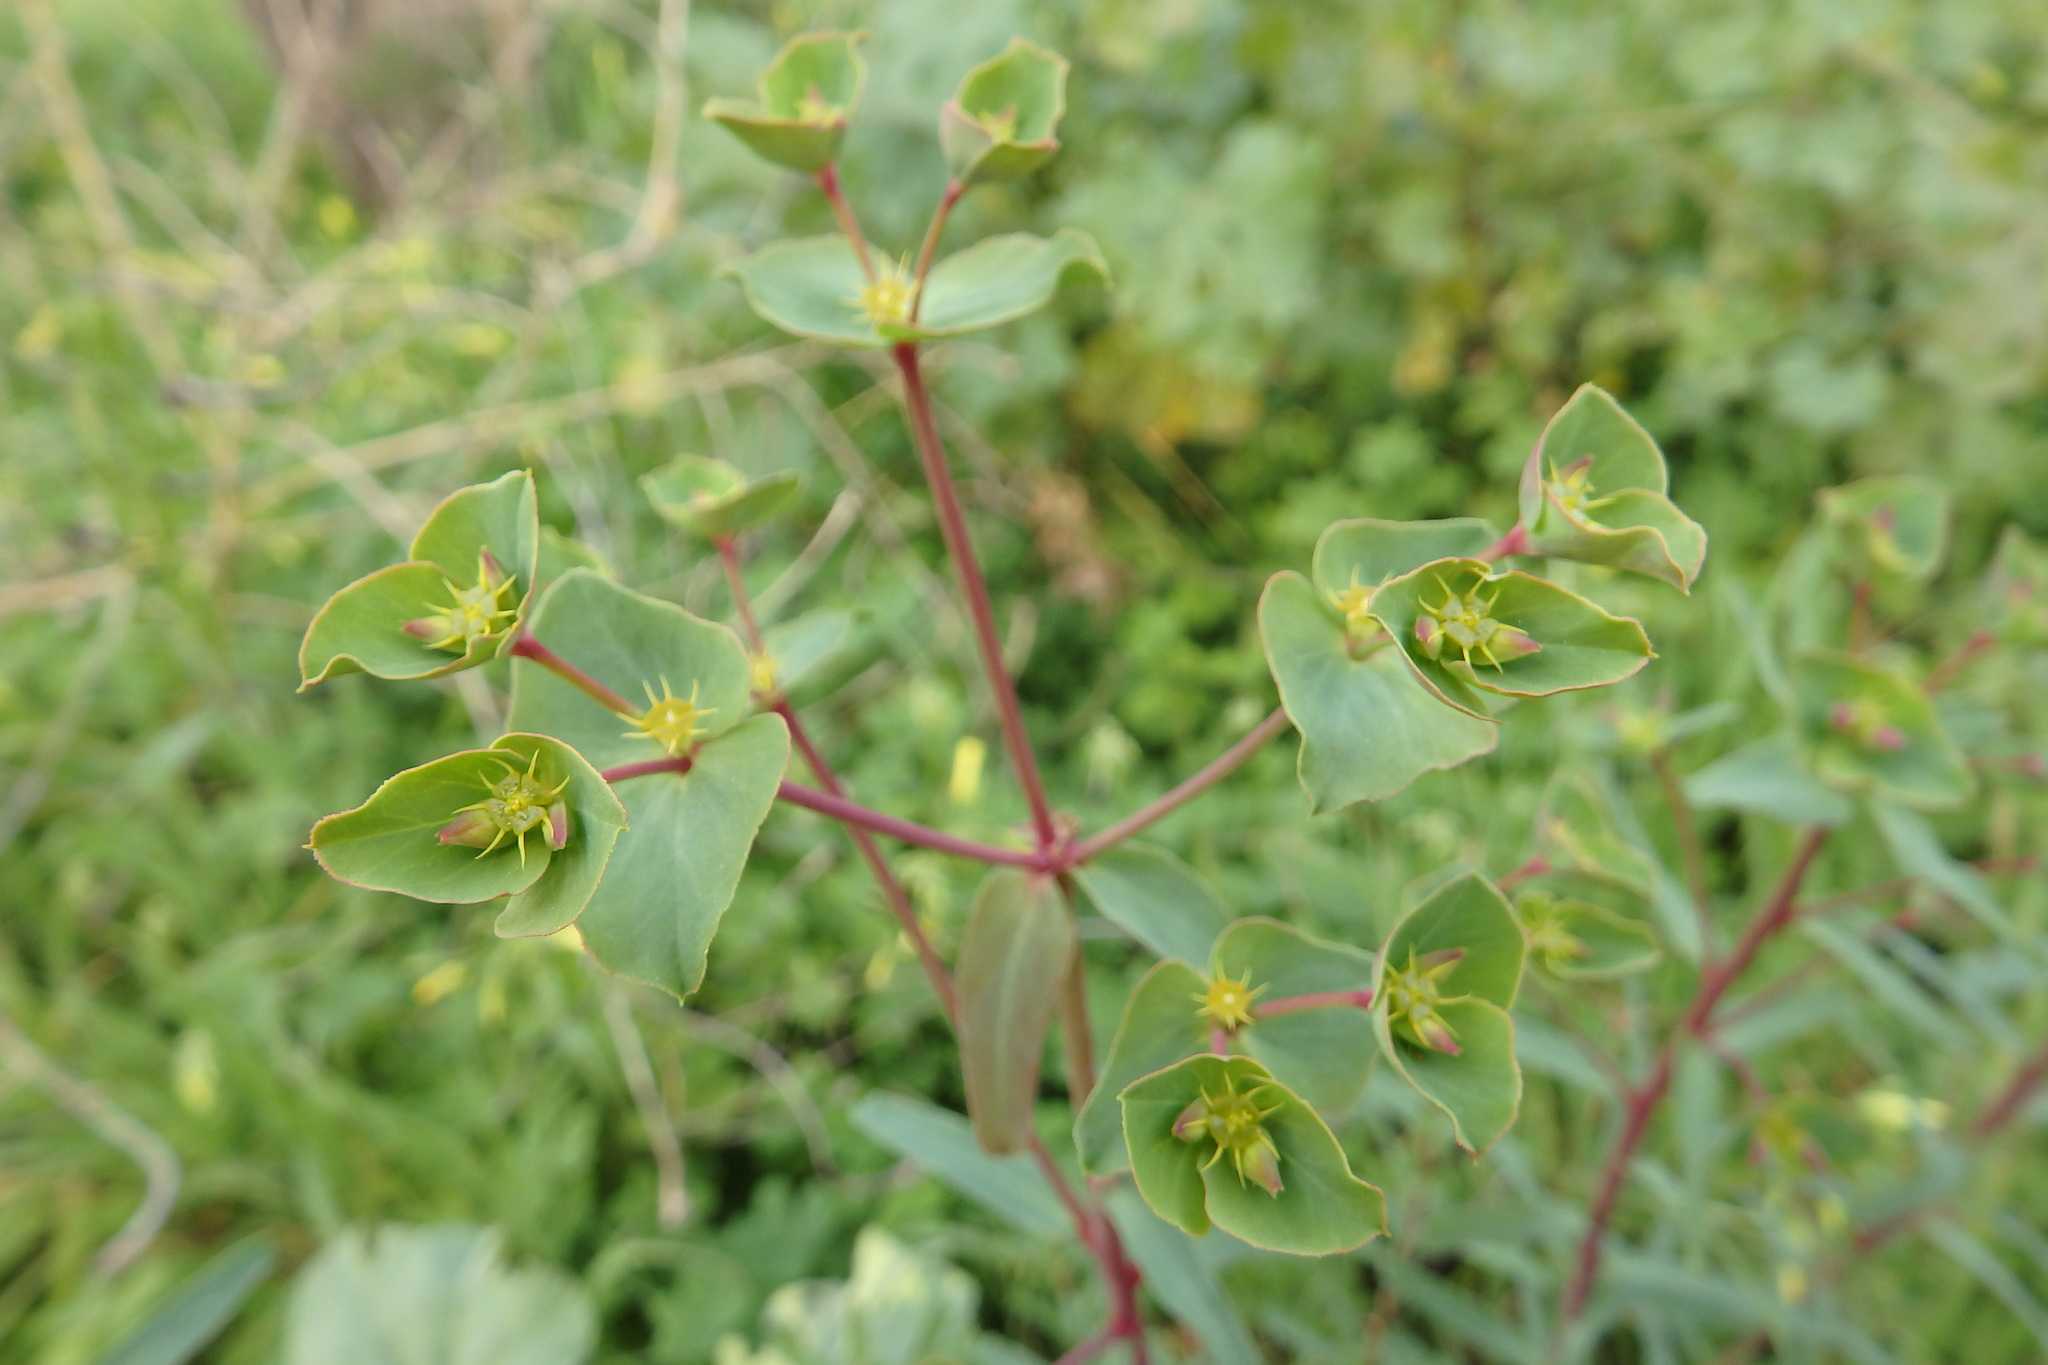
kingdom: Plantae
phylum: Tracheophyta
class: Magnoliopsida
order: Malpighiales
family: Euphorbiaceae
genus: Euphorbia
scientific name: Euphorbia terracina
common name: Geraldton carnation weed
